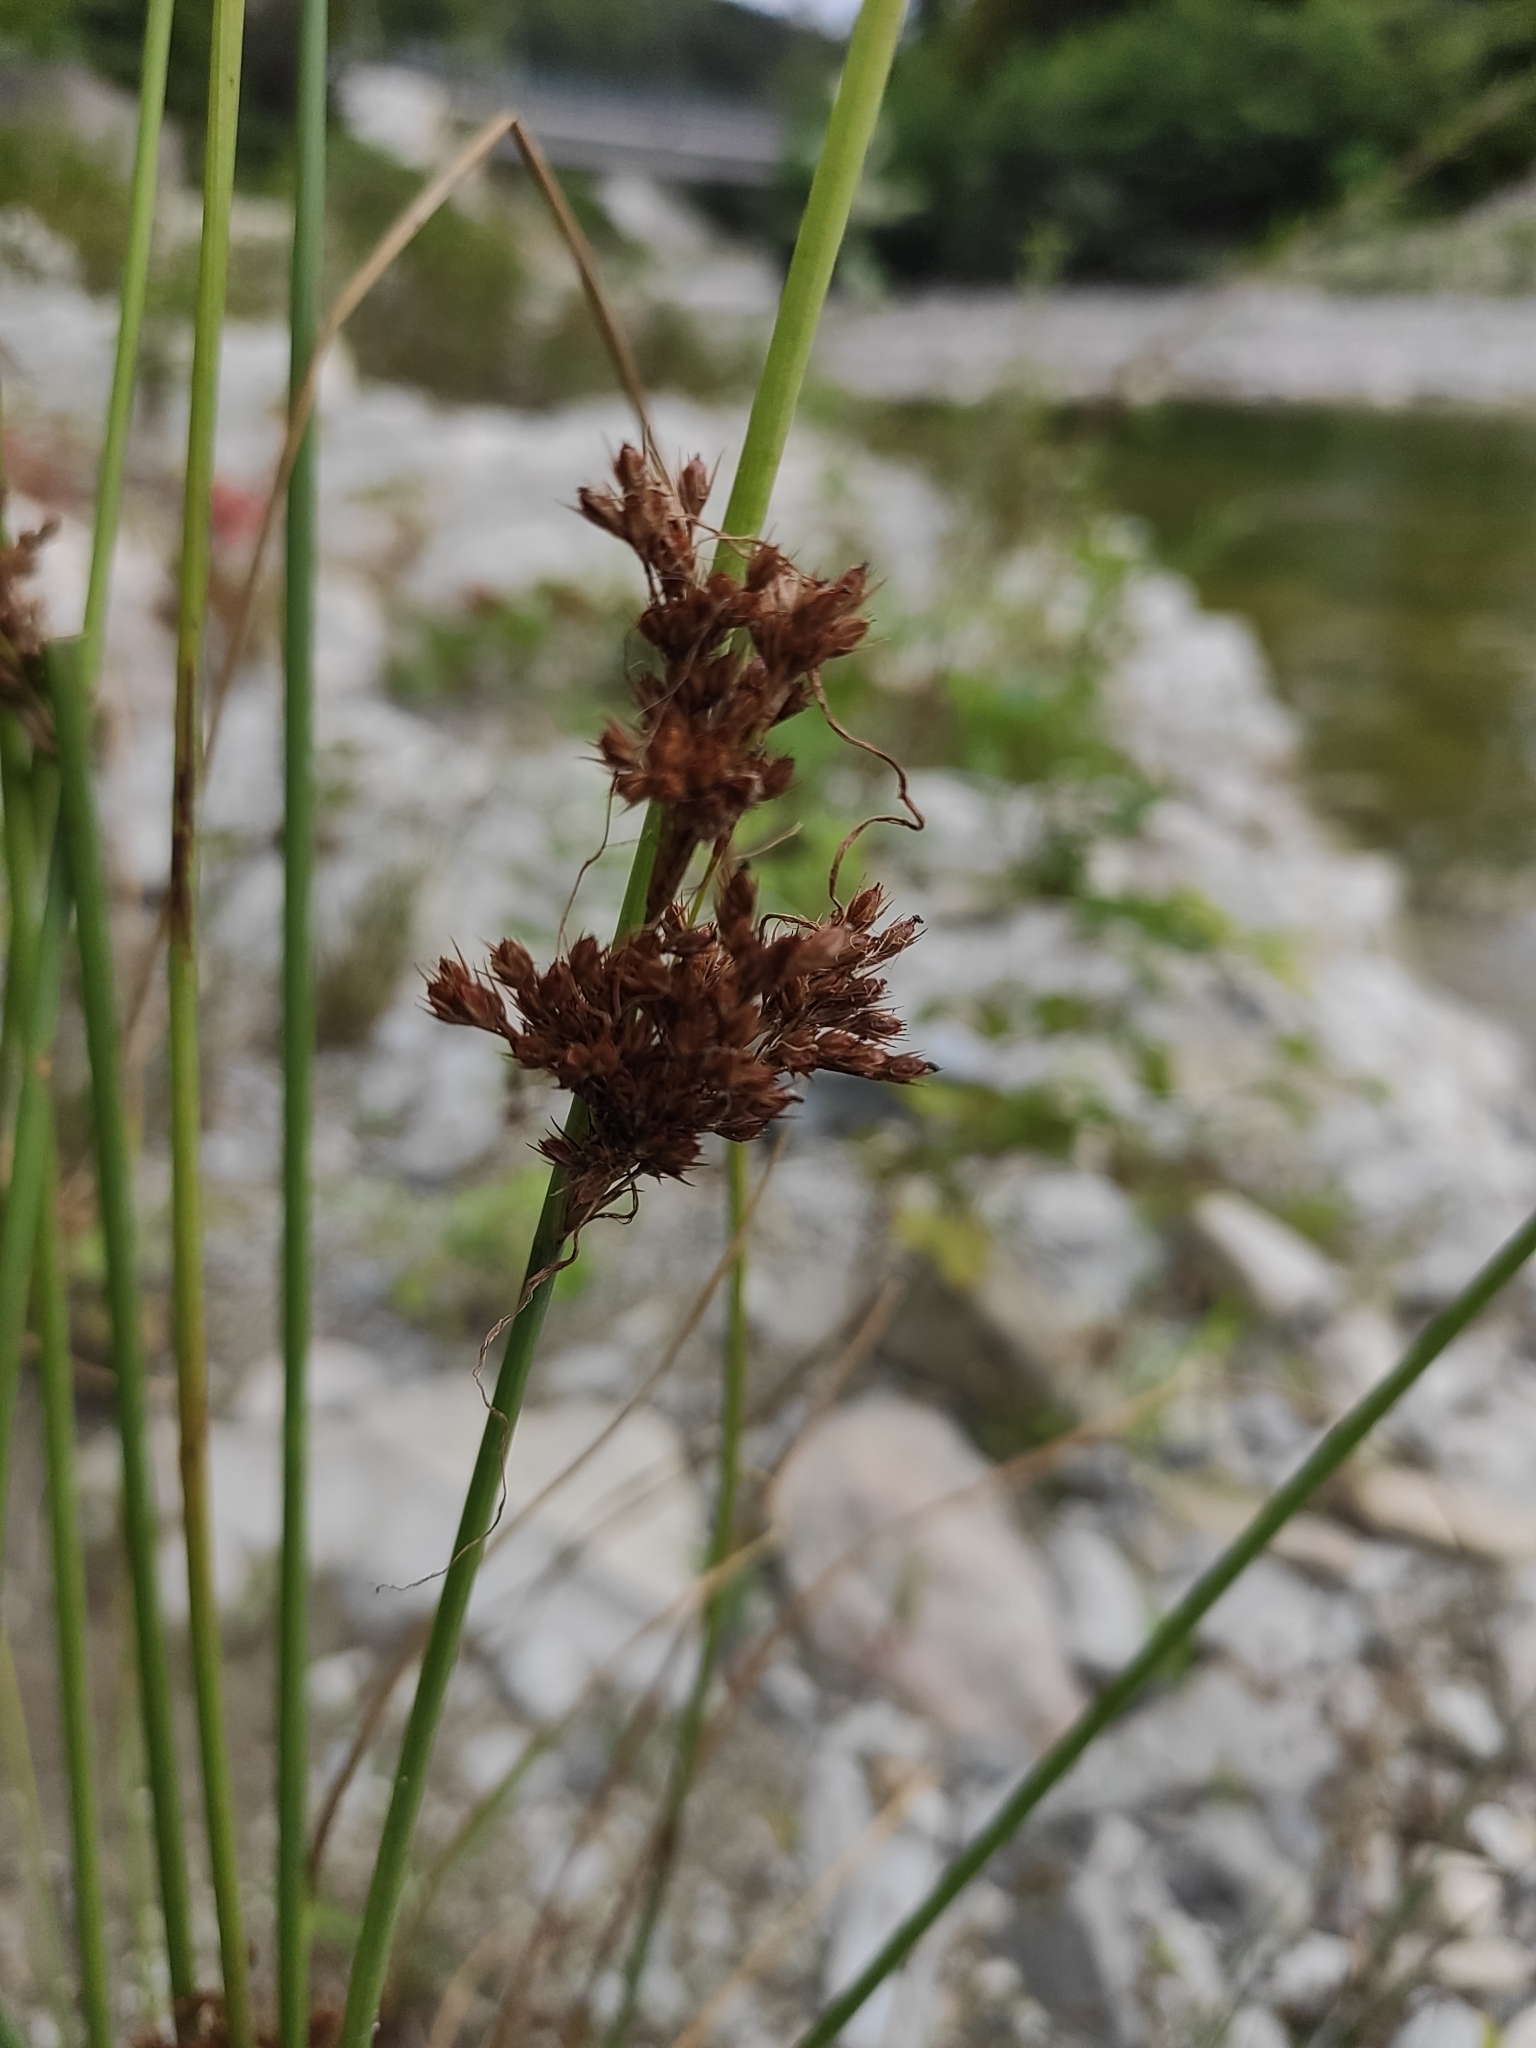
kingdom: Plantae
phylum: Tracheophyta
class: Liliopsida
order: Poales
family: Juncaceae
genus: Juncus
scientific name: Juncus inflexus
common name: Hard rush
